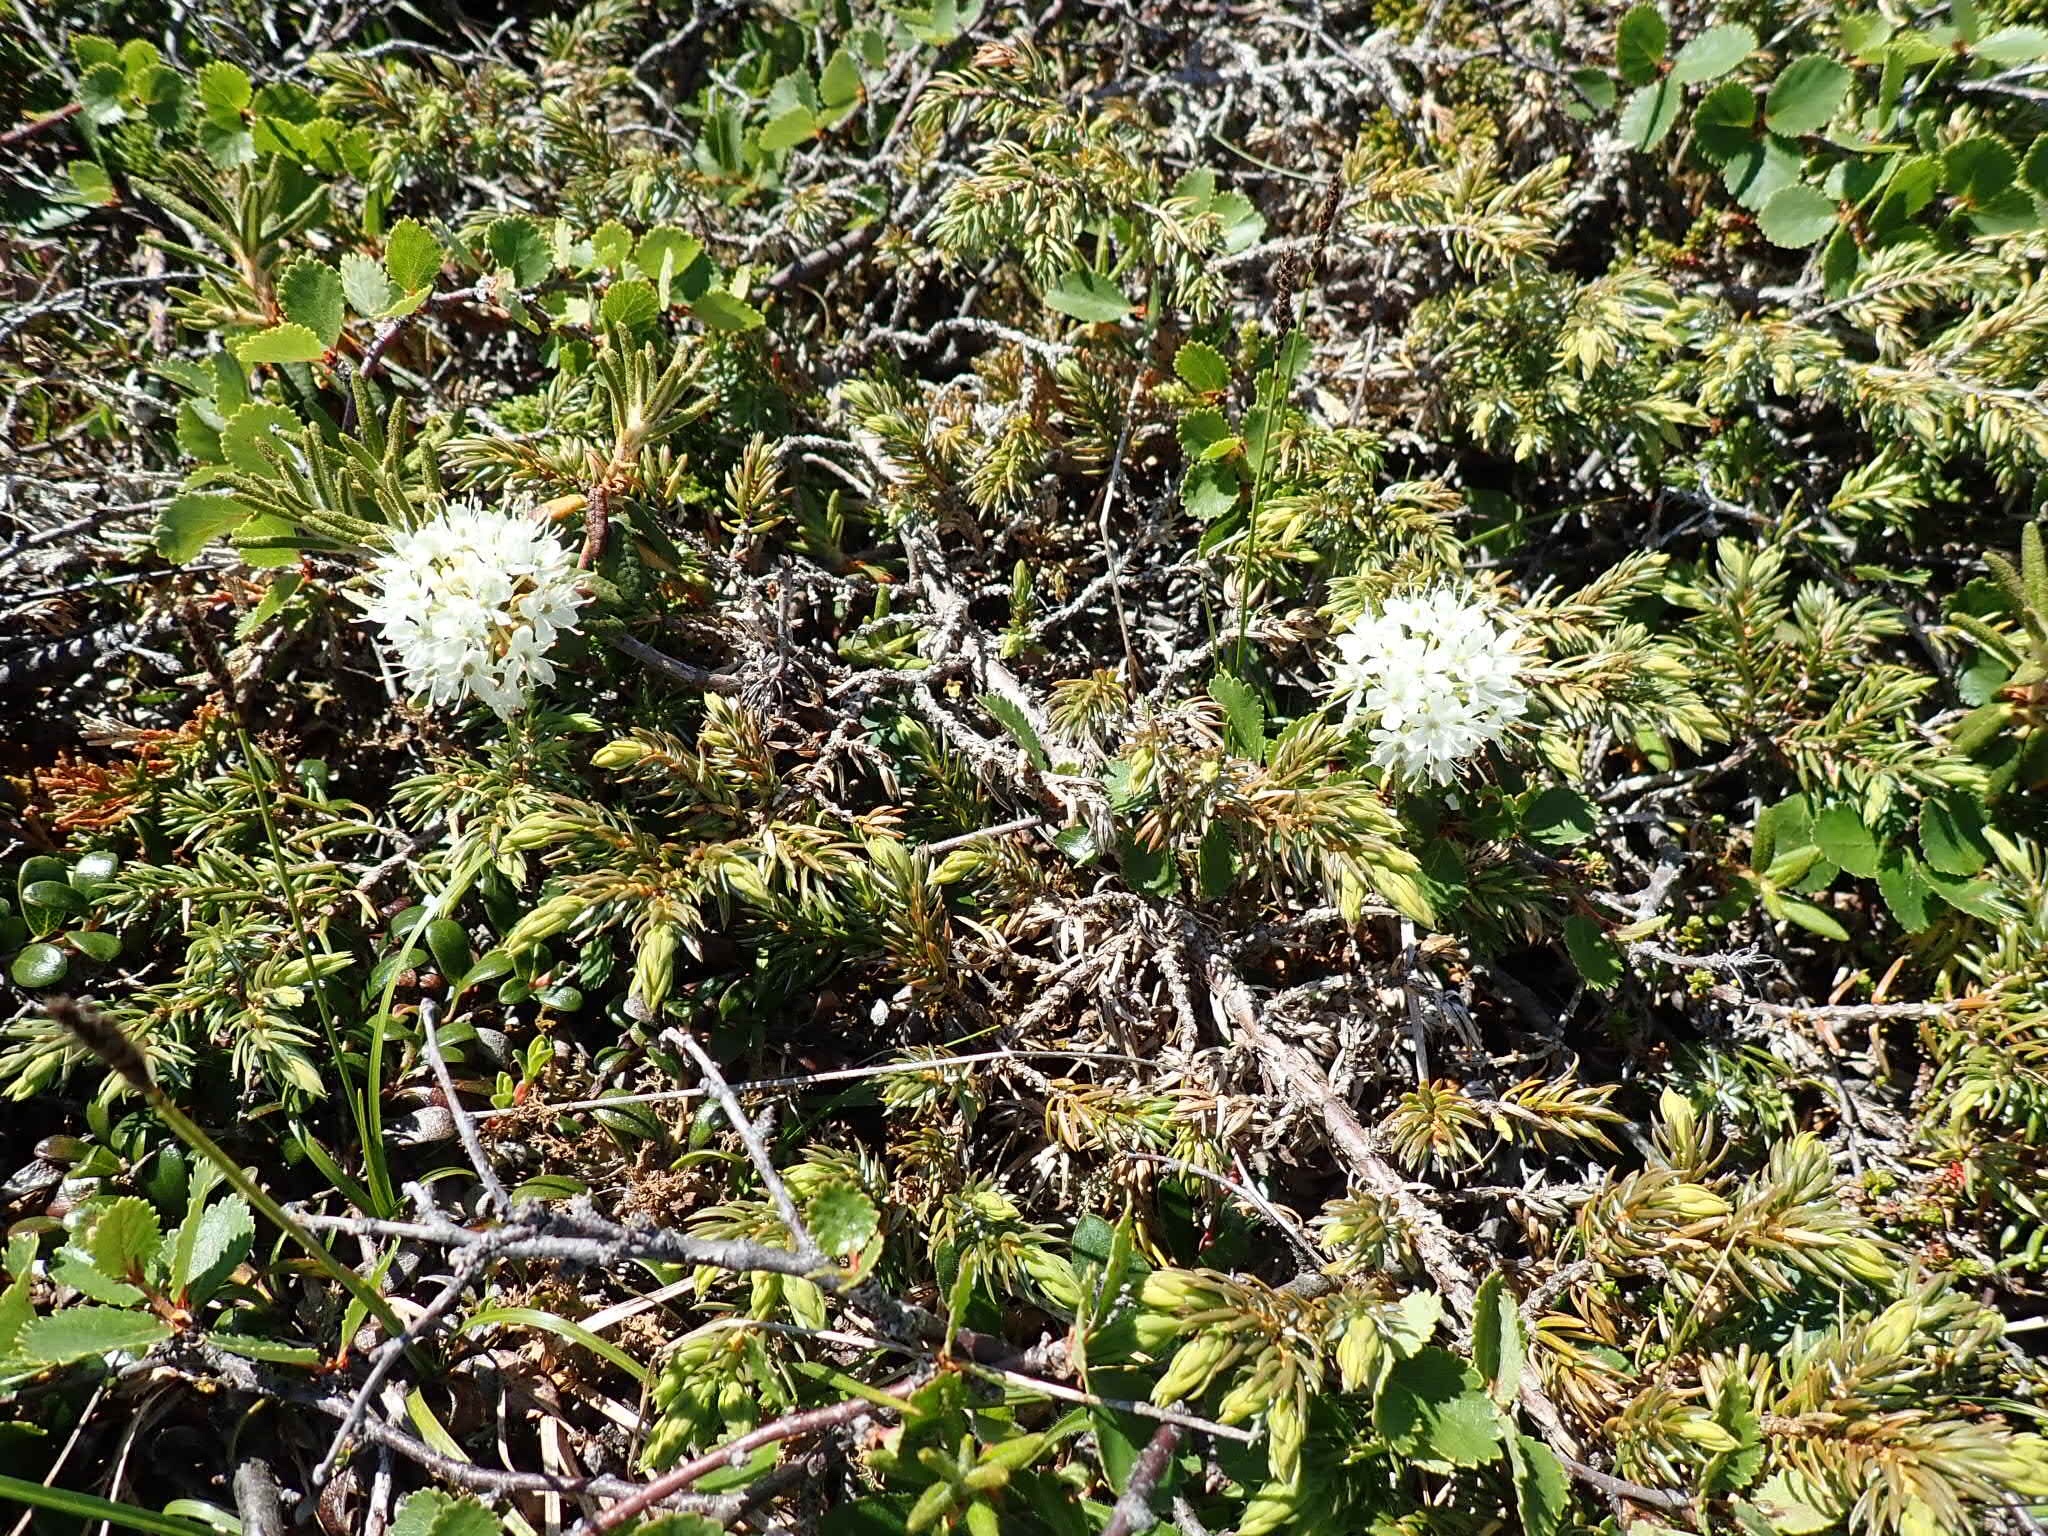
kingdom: Plantae
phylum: Tracheophyta
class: Magnoliopsida
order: Ericales
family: Ericaceae
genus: Rhododendron
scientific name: Rhododendron groenlandicum
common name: Bog labrador tea
